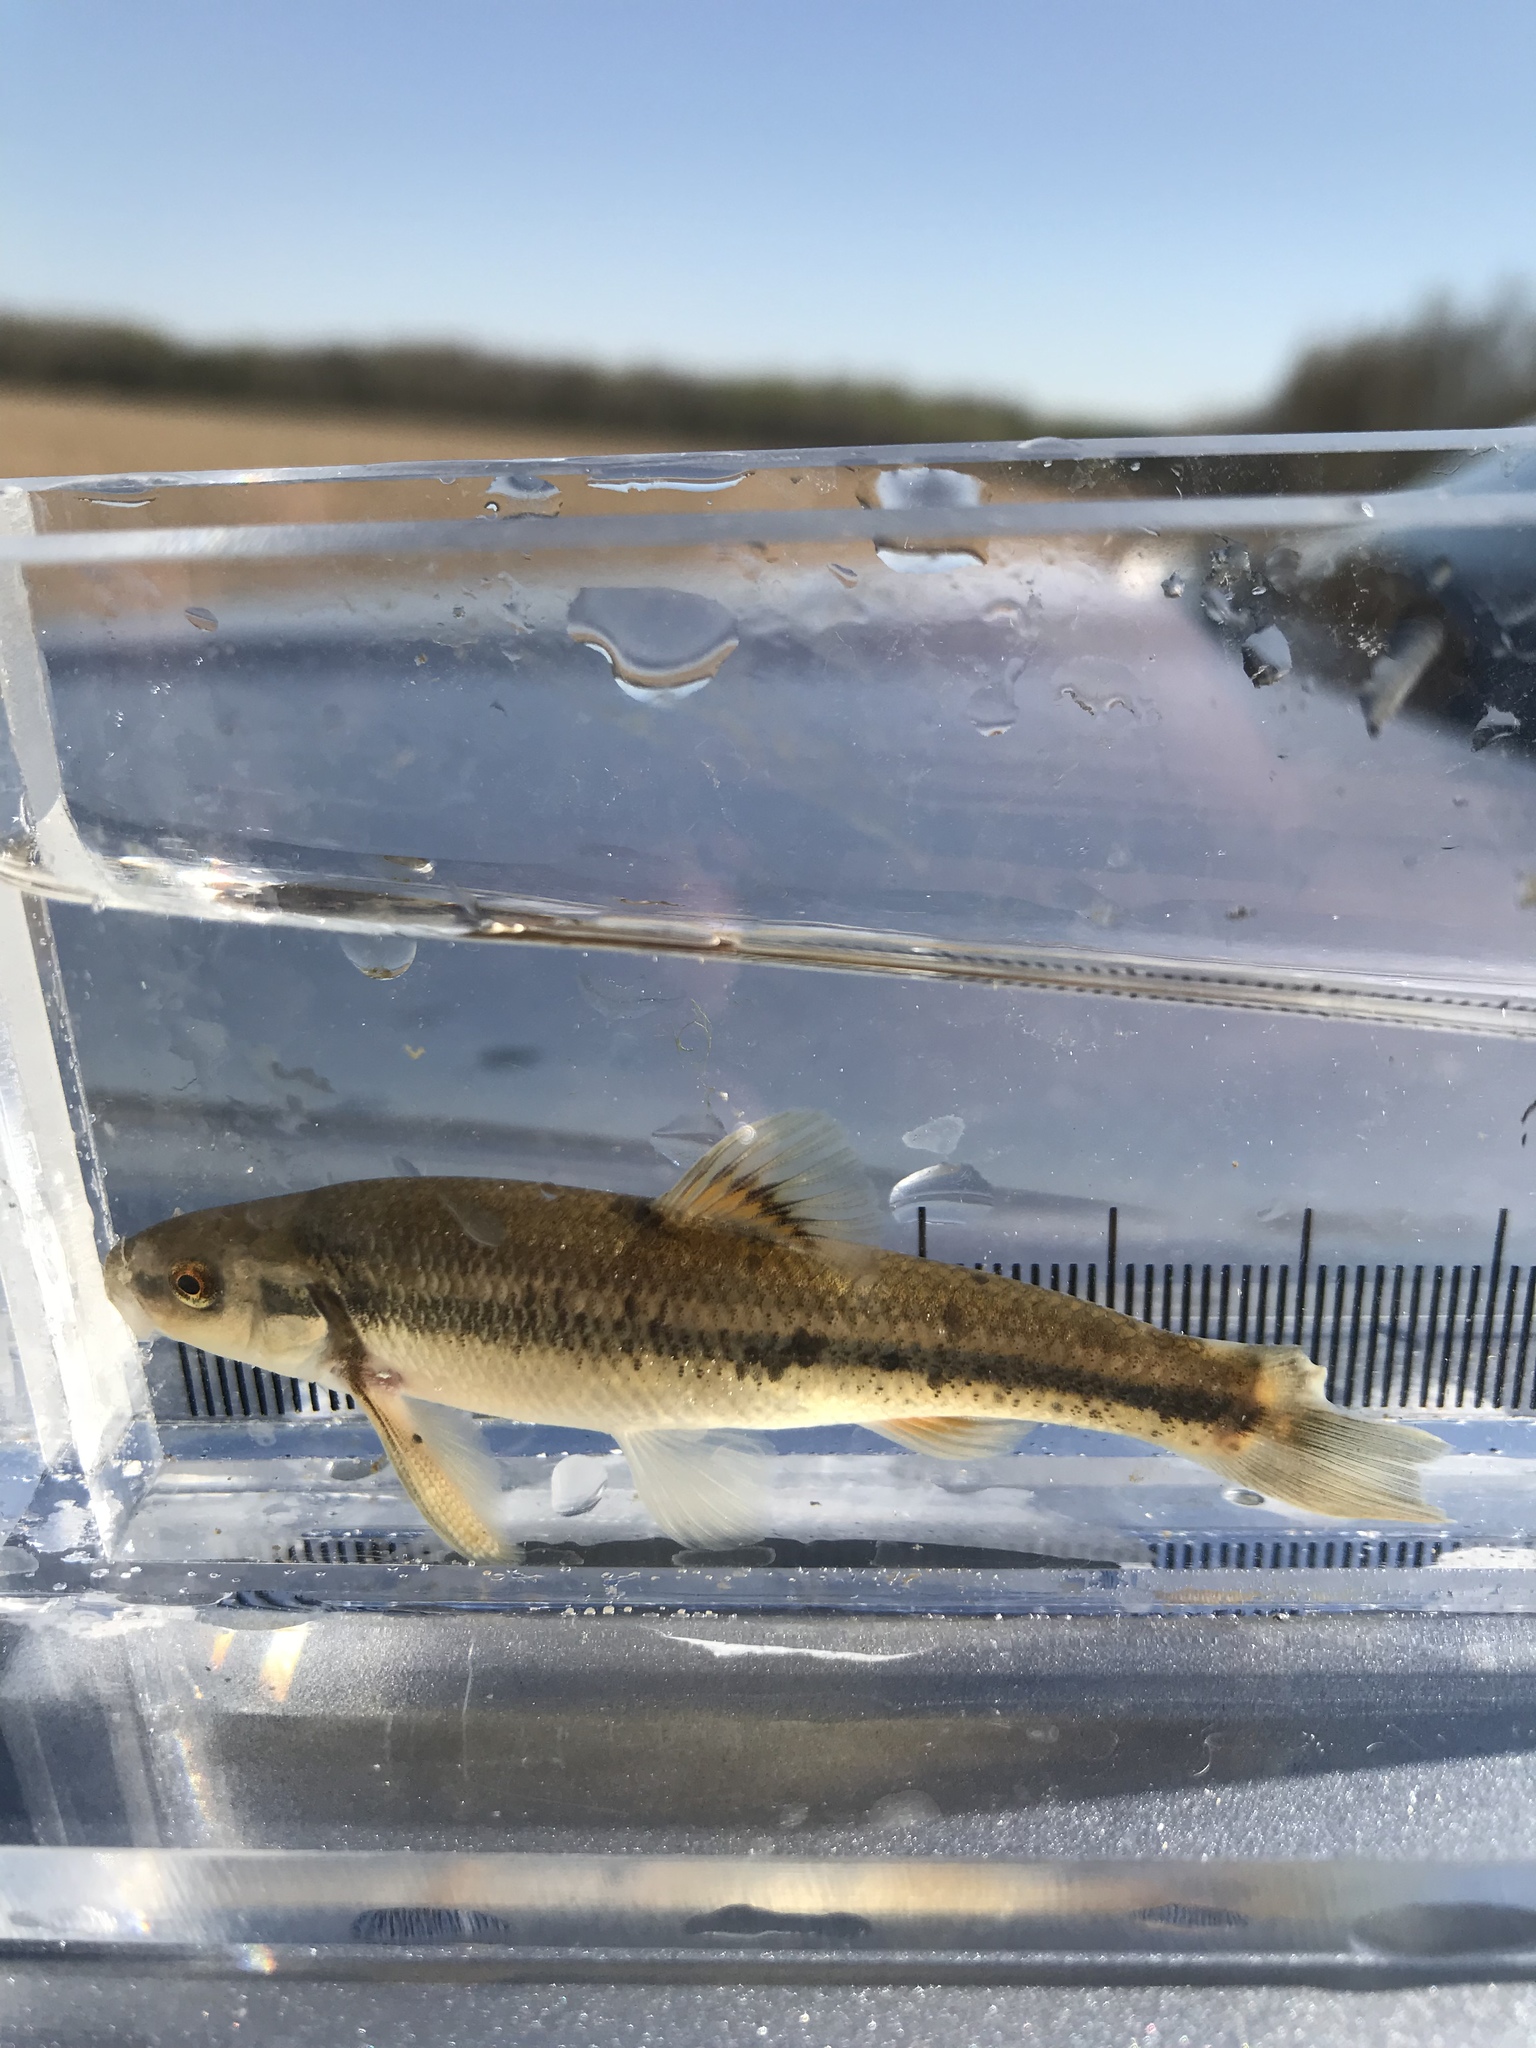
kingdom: Animalia
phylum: Chordata
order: Cypriniformes
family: Cyprinidae
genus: Campostoma
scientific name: Campostoma anomalum
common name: Central stoneroller
